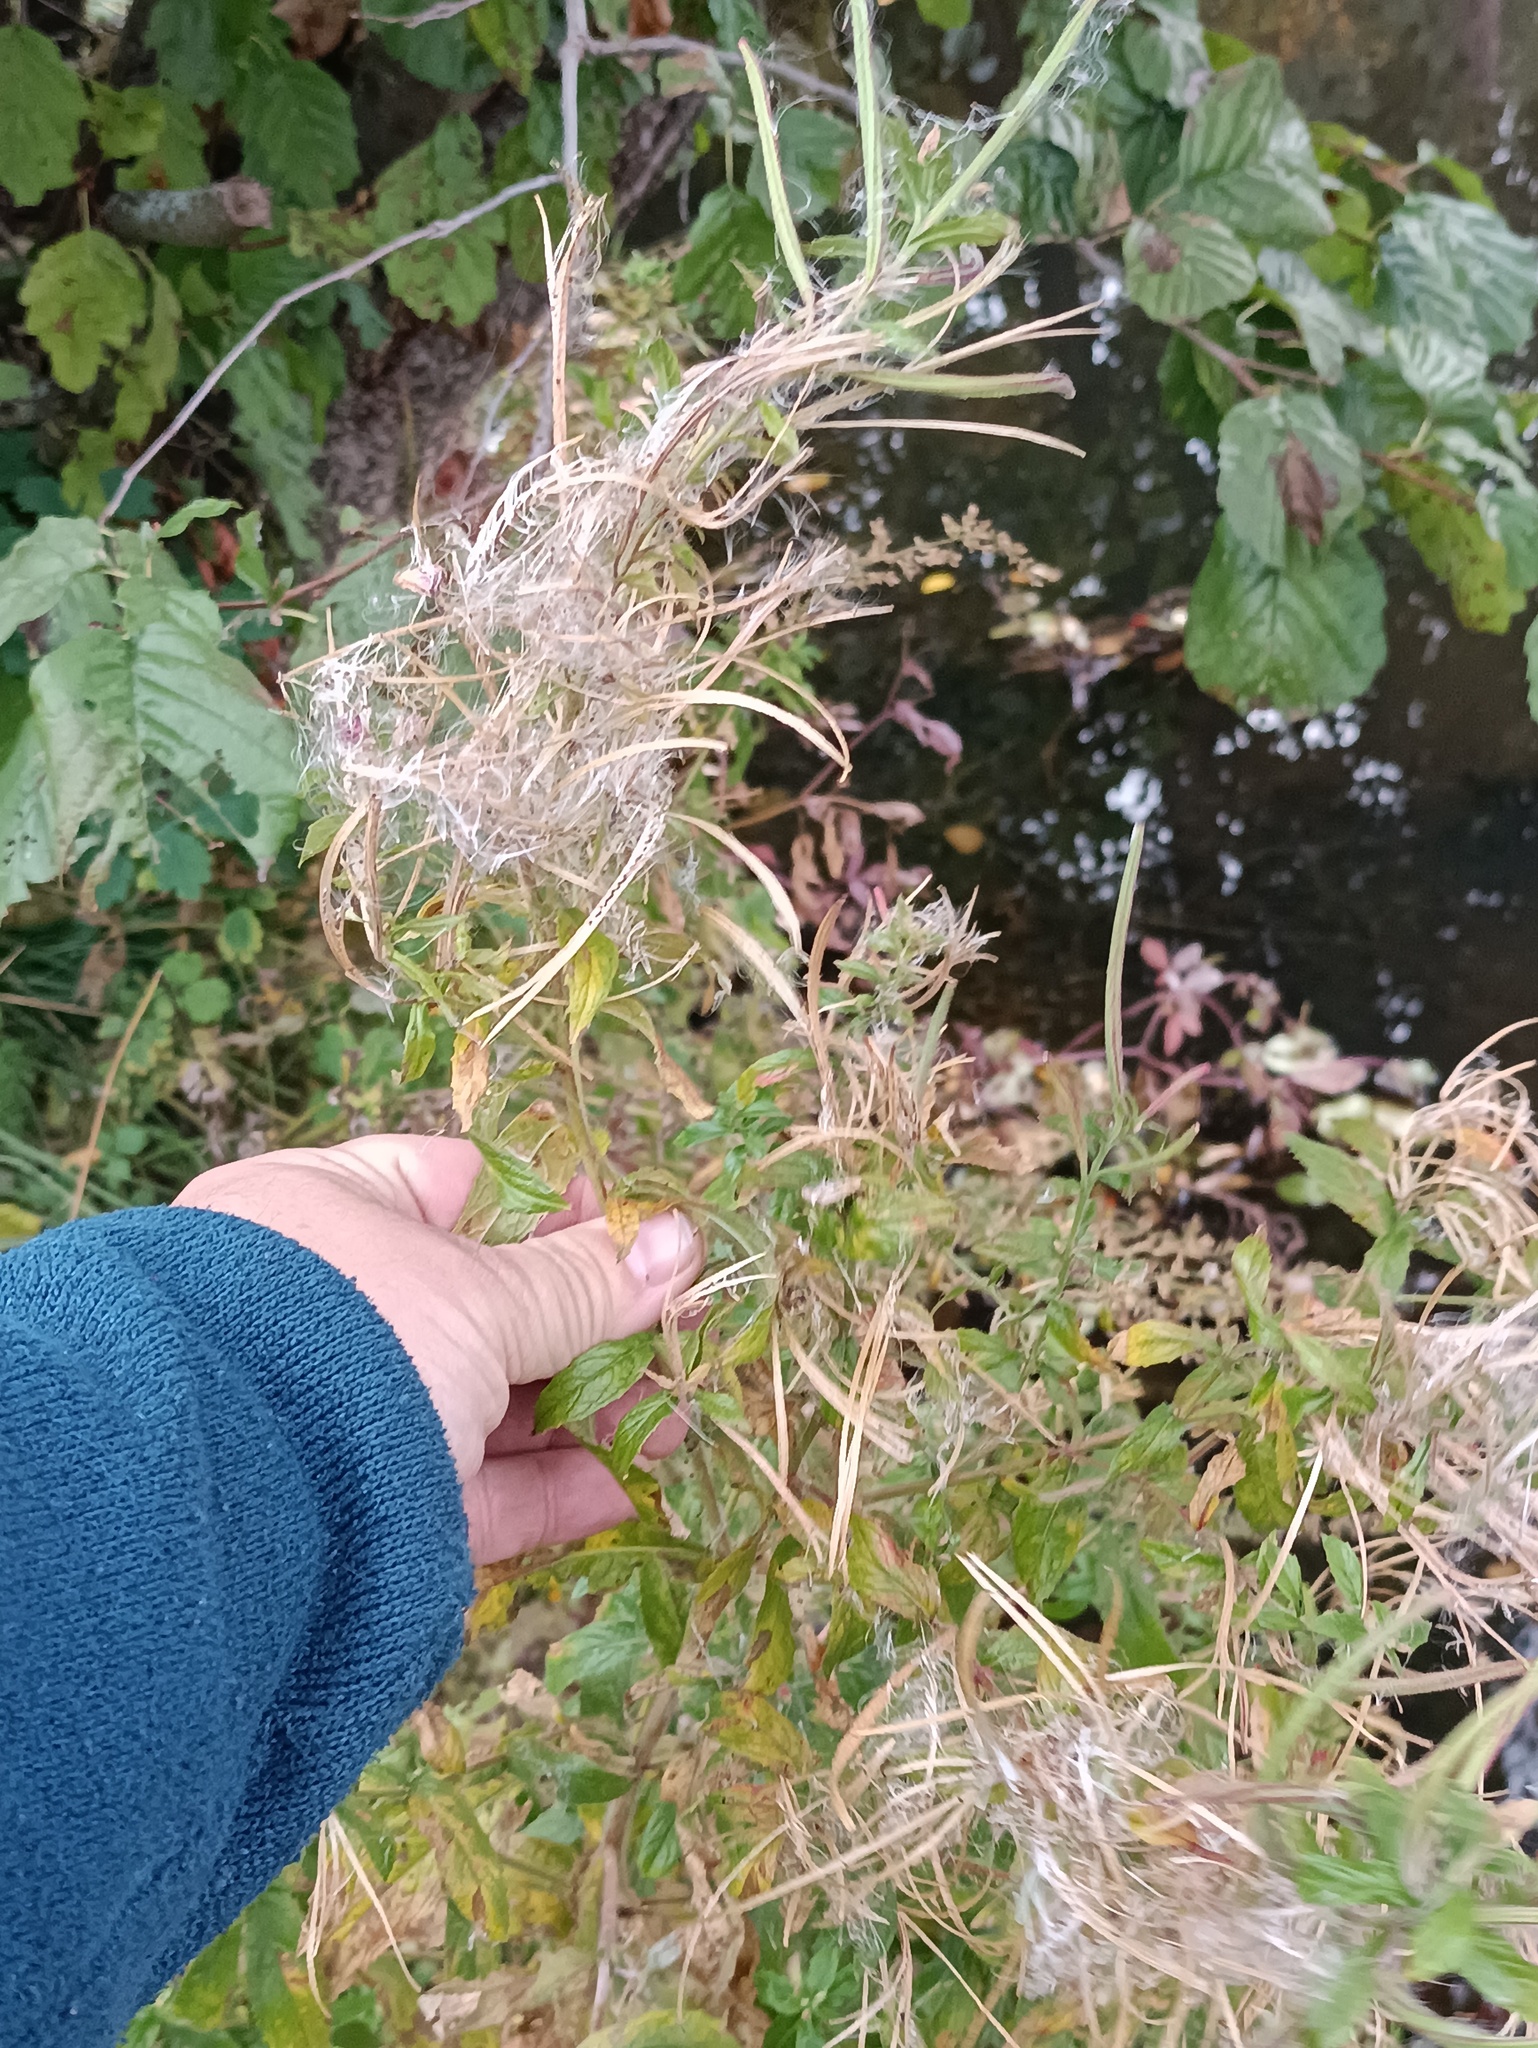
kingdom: Plantae
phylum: Tracheophyta
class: Magnoliopsida
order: Myrtales
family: Onagraceae
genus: Epilobium
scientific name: Epilobium hirsutum
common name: Great willowherb
